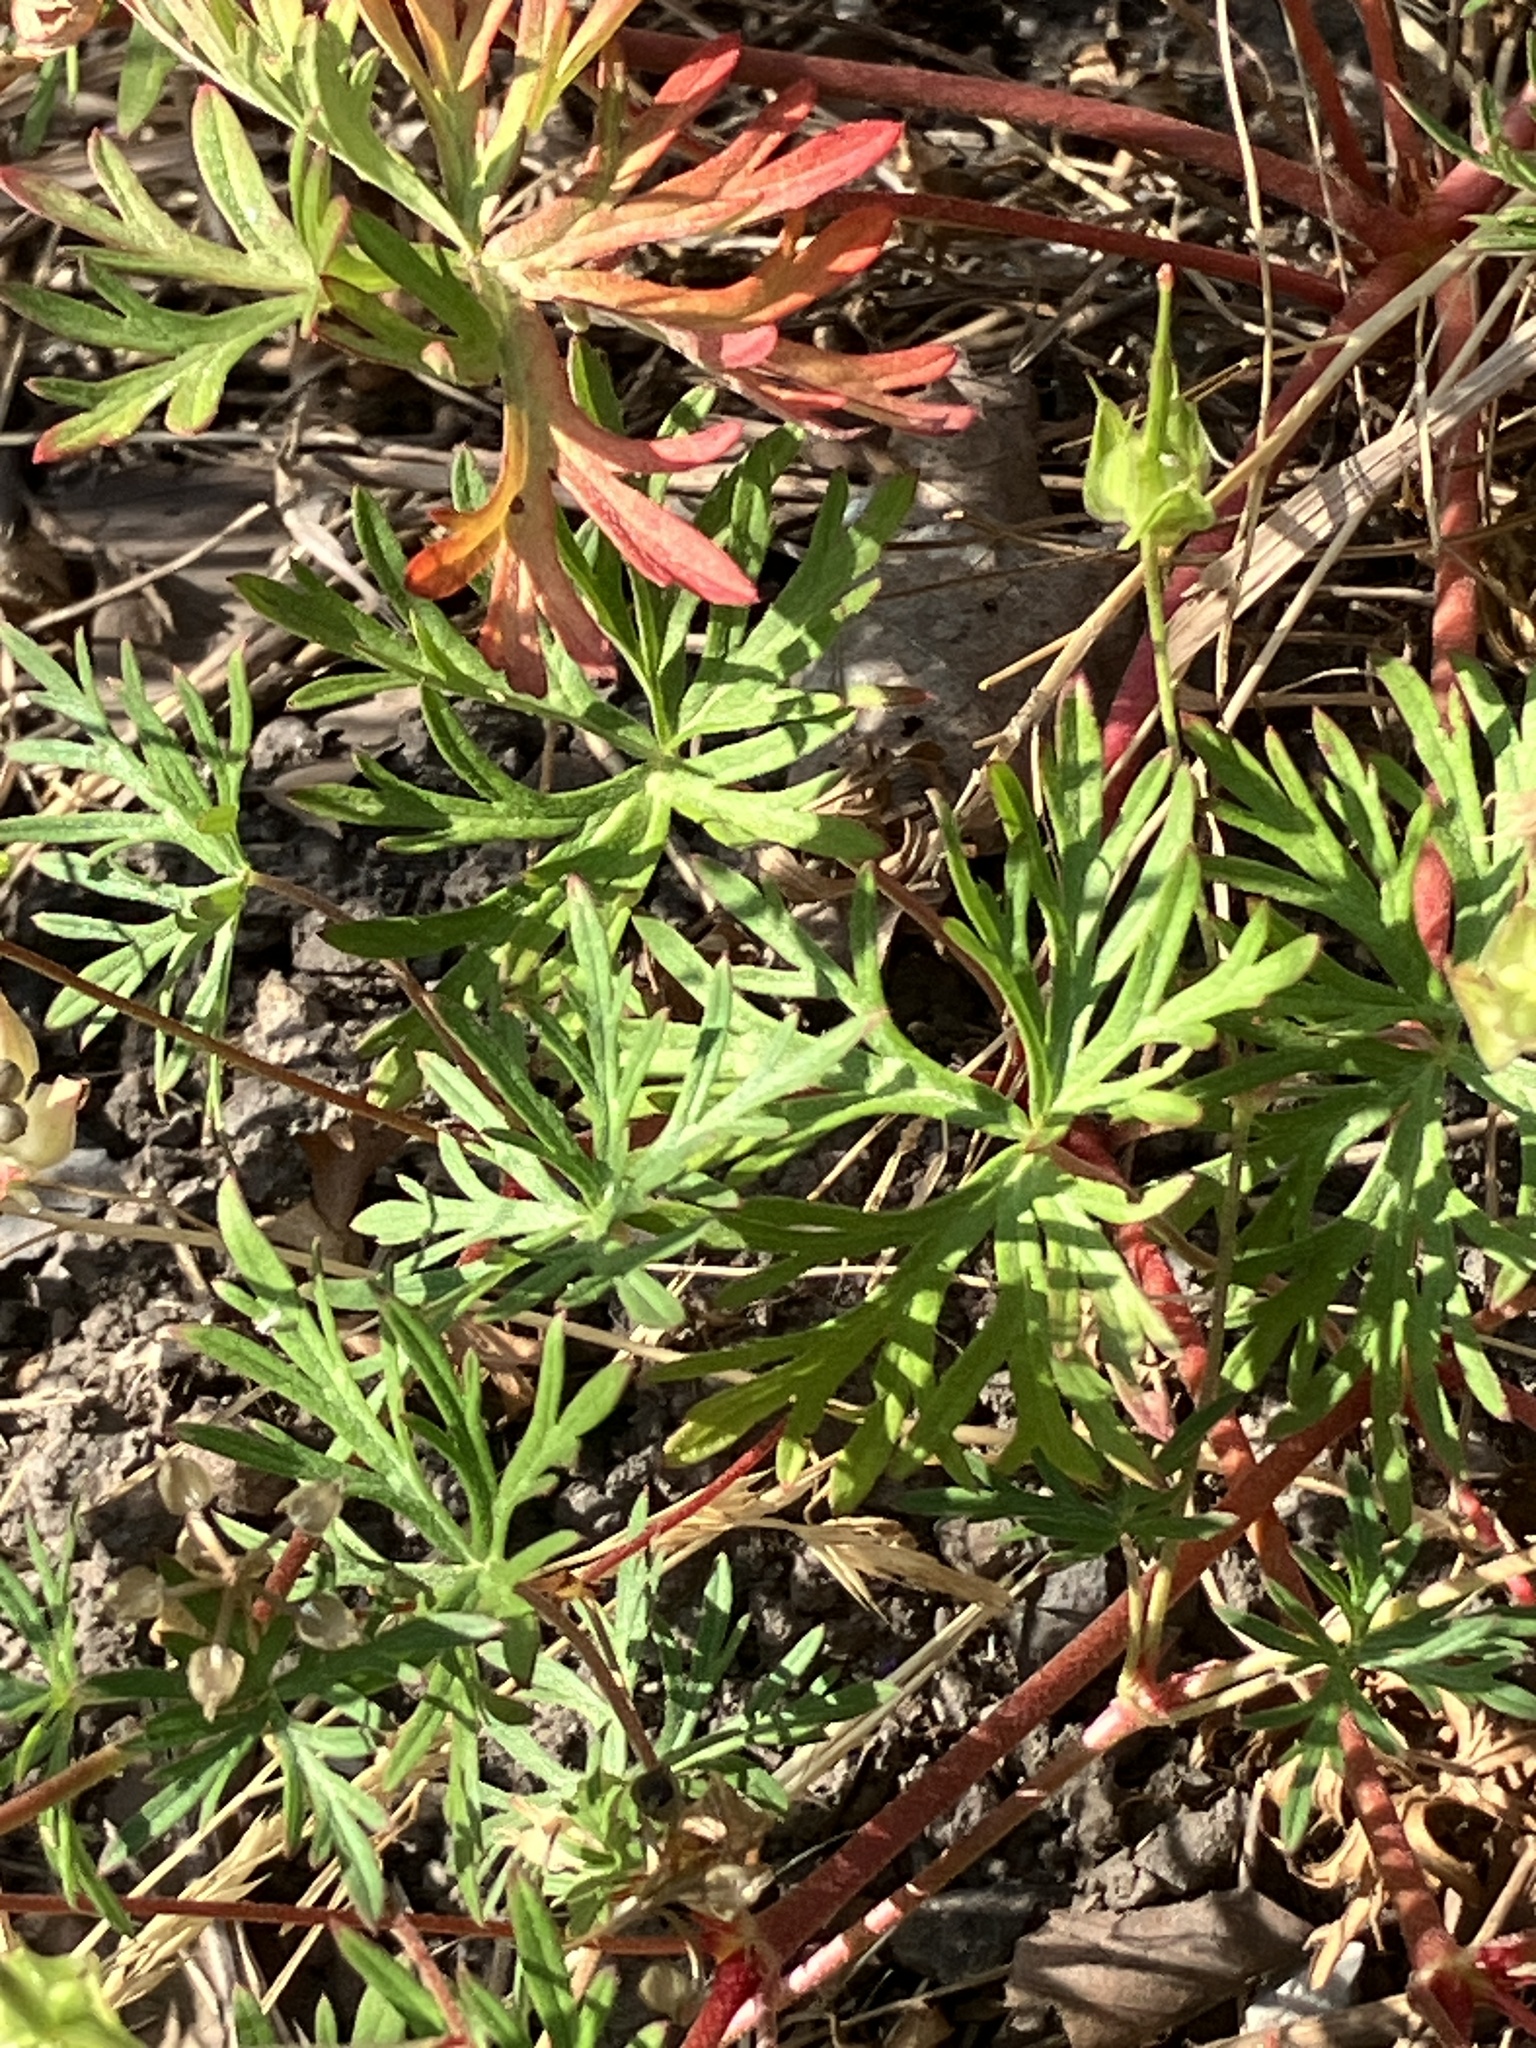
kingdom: Plantae
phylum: Tracheophyta
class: Magnoliopsida
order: Geraniales
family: Geraniaceae
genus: Geranium
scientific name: Geranium columbinum
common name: Long-stalked crane's-bill
